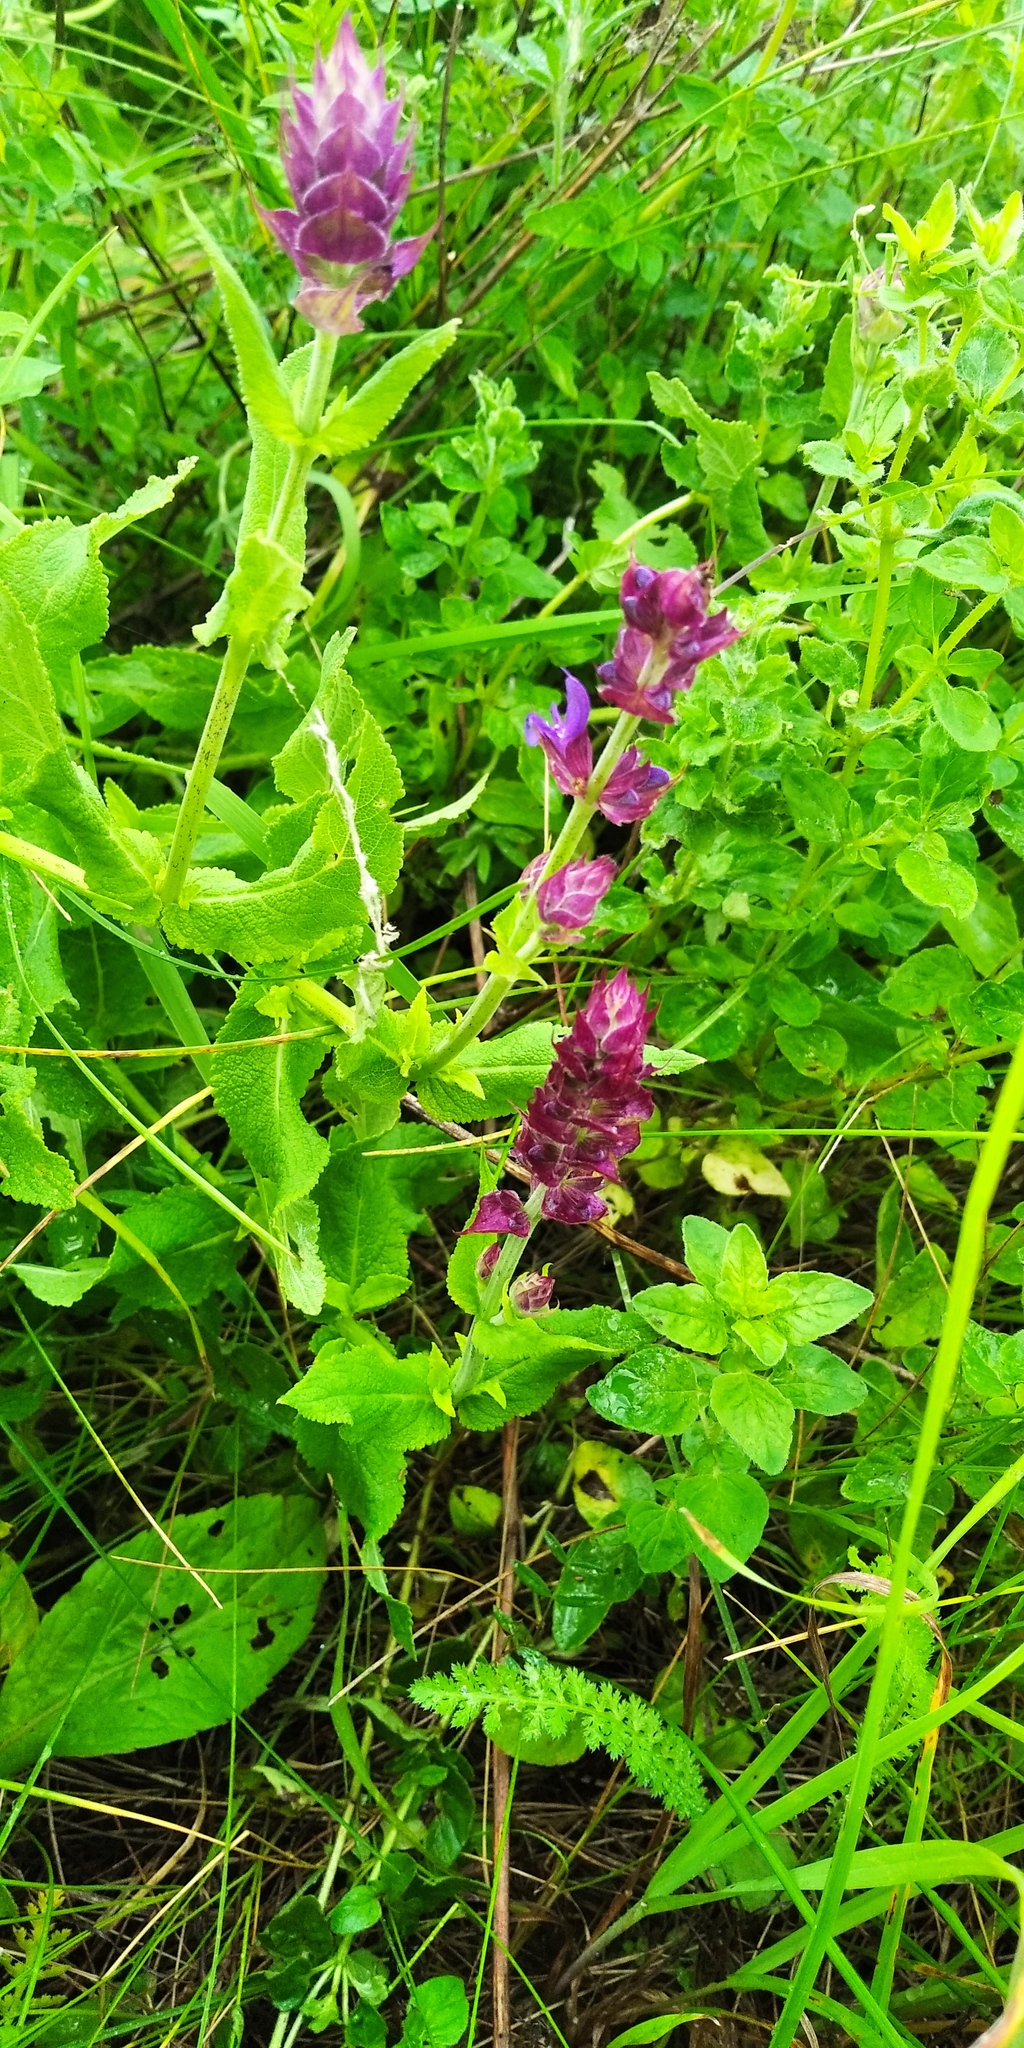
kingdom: Plantae
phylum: Tracheophyta
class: Magnoliopsida
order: Lamiales
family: Lamiaceae
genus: Salvia
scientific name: Salvia nemorosa
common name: Balkan clary
